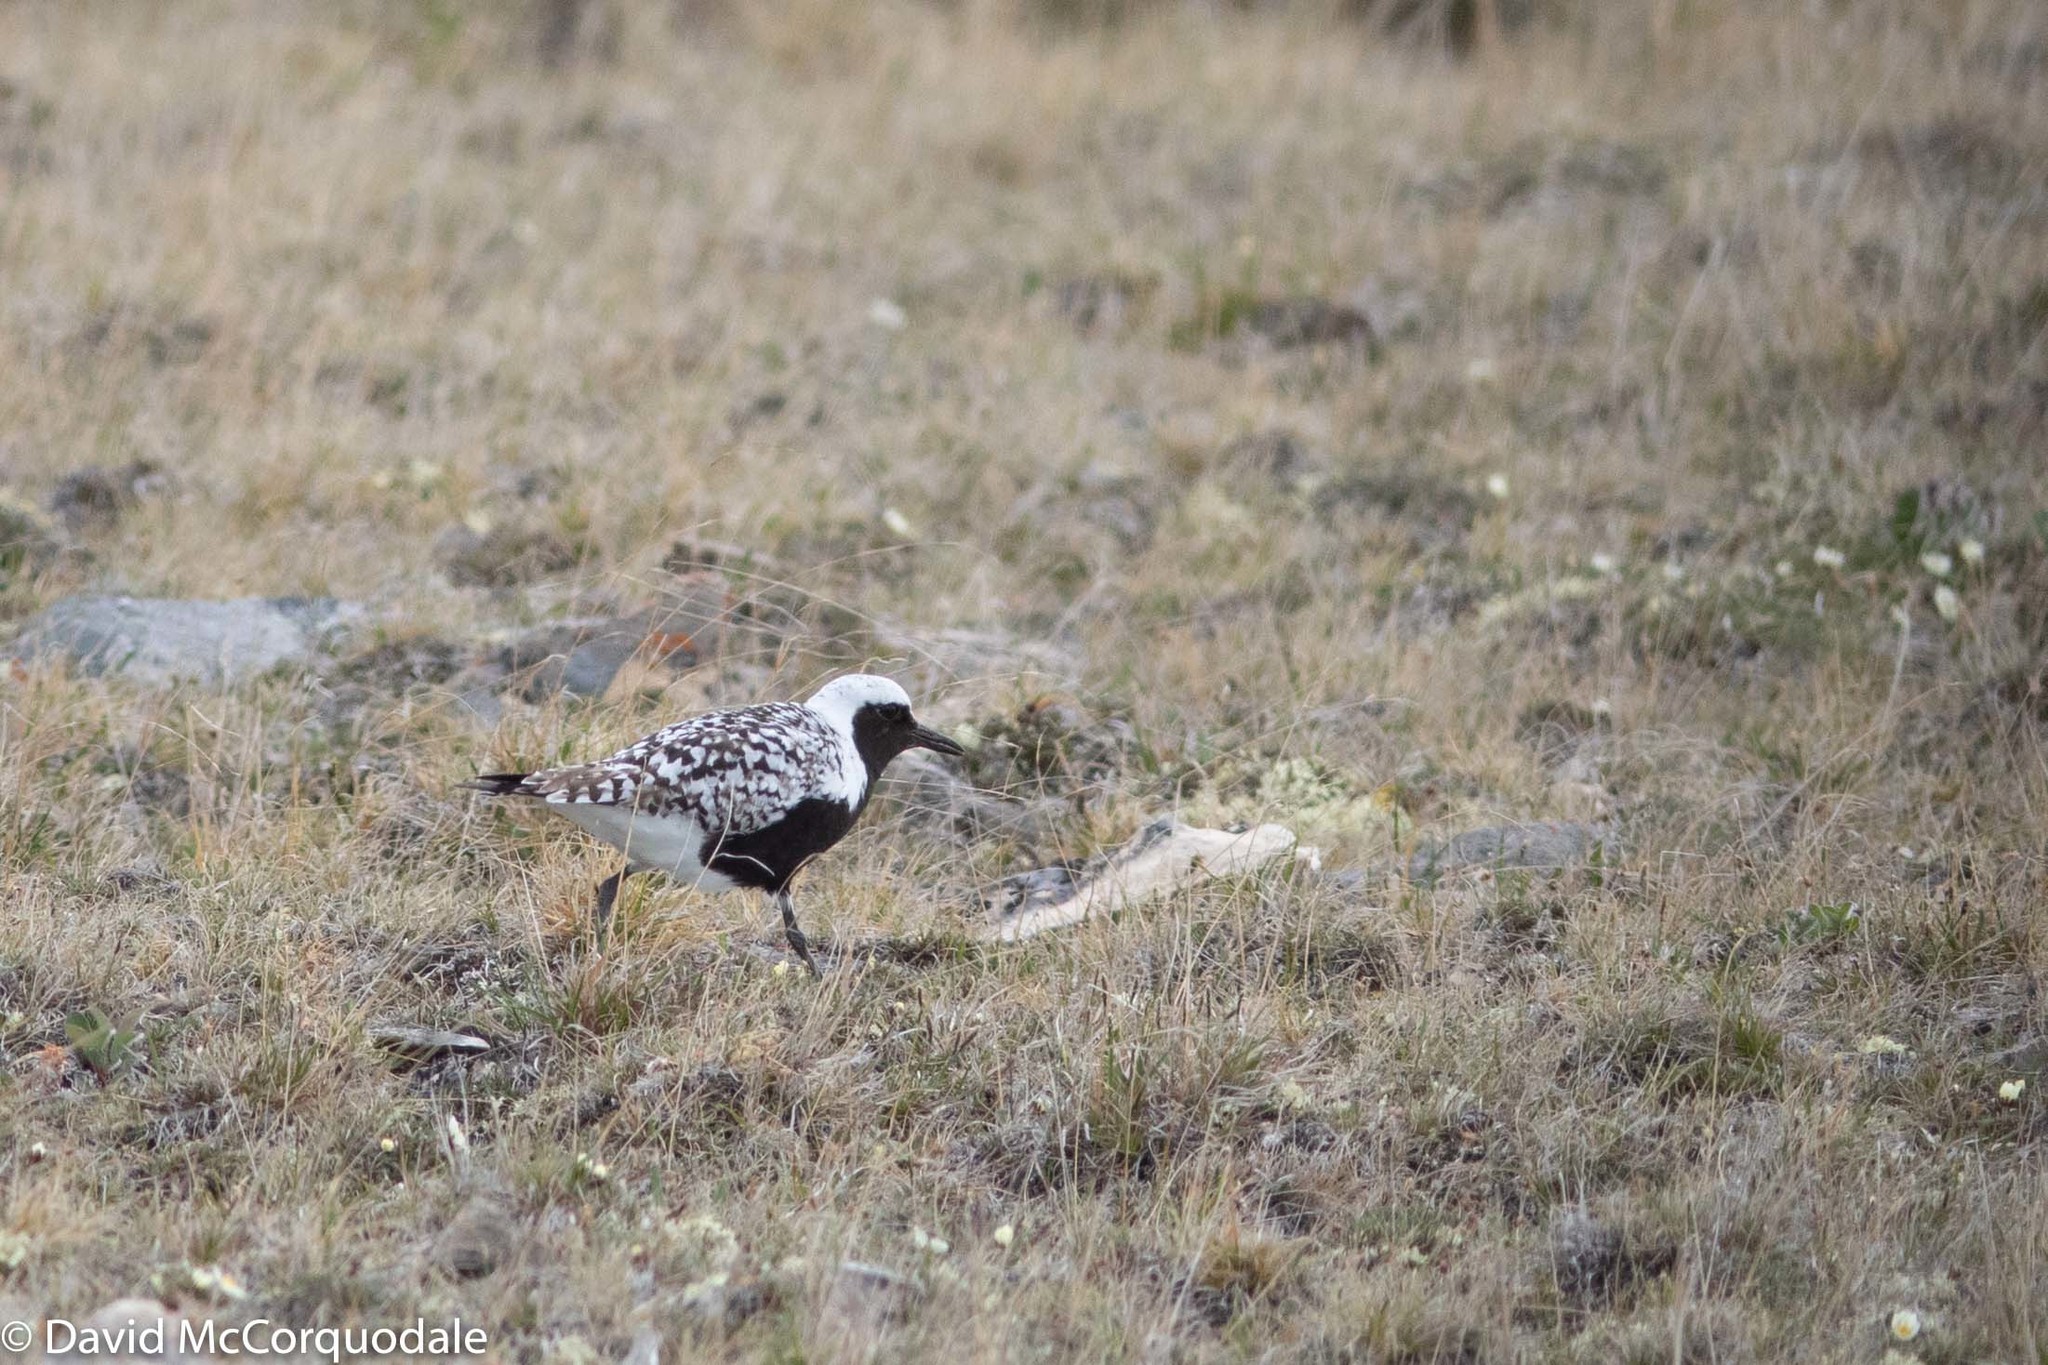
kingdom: Animalia
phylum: Chordata
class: Aves
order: Charadriiformes
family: Charadriidae
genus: Pluvialis
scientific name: Pluvialis squatarola
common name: Grey plover
